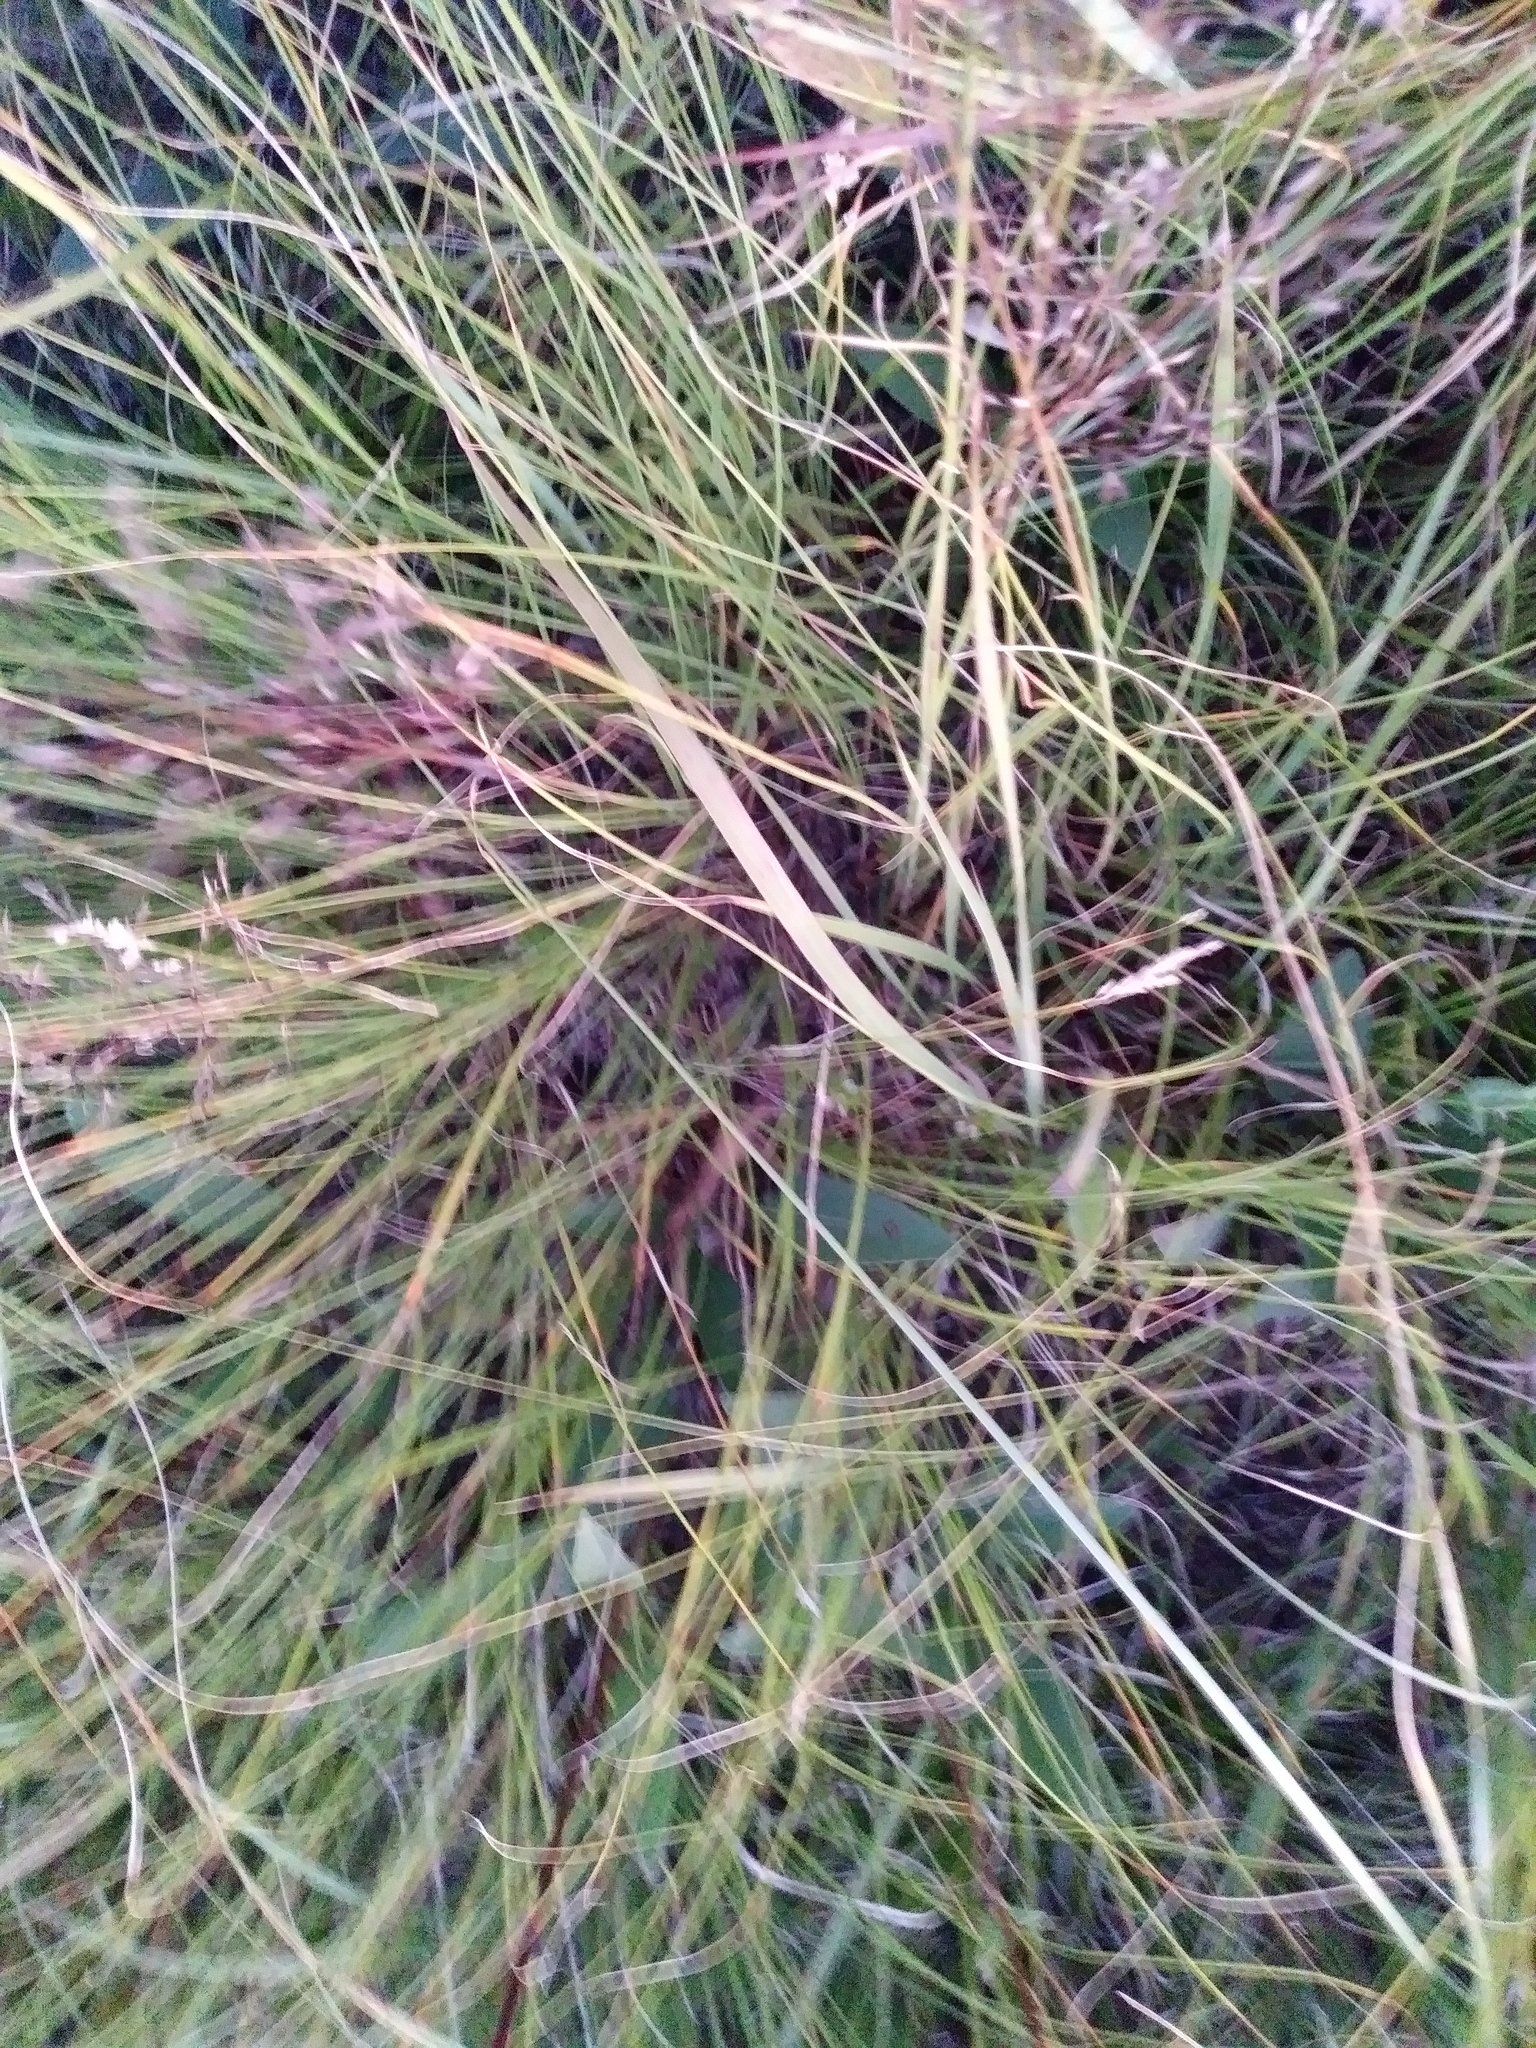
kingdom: Plantae
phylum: Tracheophyta
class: Liliopsida
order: Poales
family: Poaceae
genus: Sporobolus
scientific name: Sporobolus heterolepis
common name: Prairie dropseed
